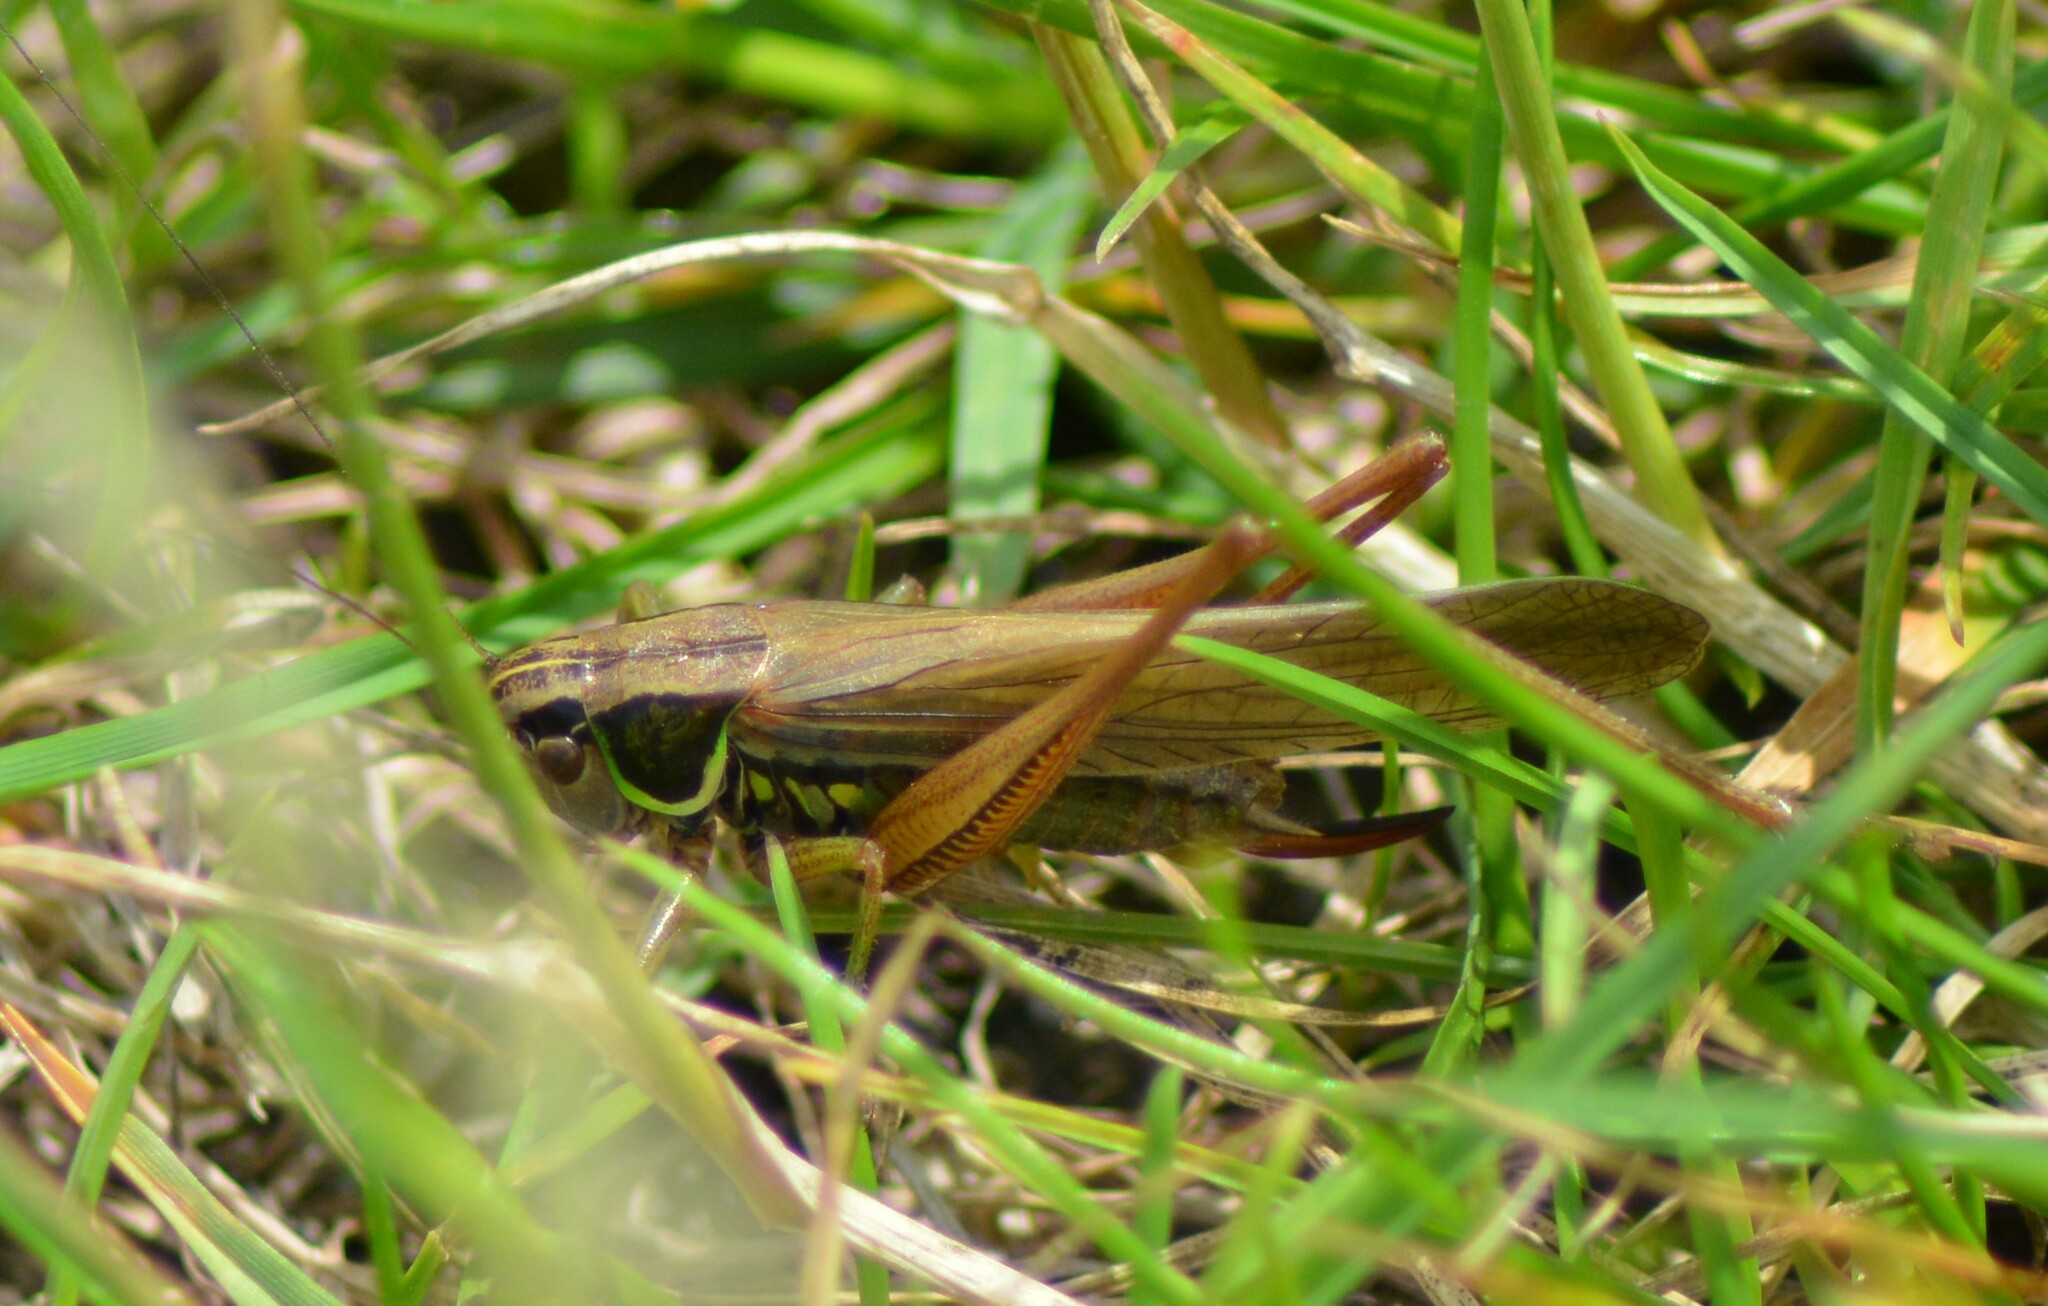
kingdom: Animalia
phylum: Arthropoda
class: Insecta
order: Orthoptera
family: Tettigoniidae
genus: Roeseliana
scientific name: Roeseliana roeselii
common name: Roesel's bush cricket
